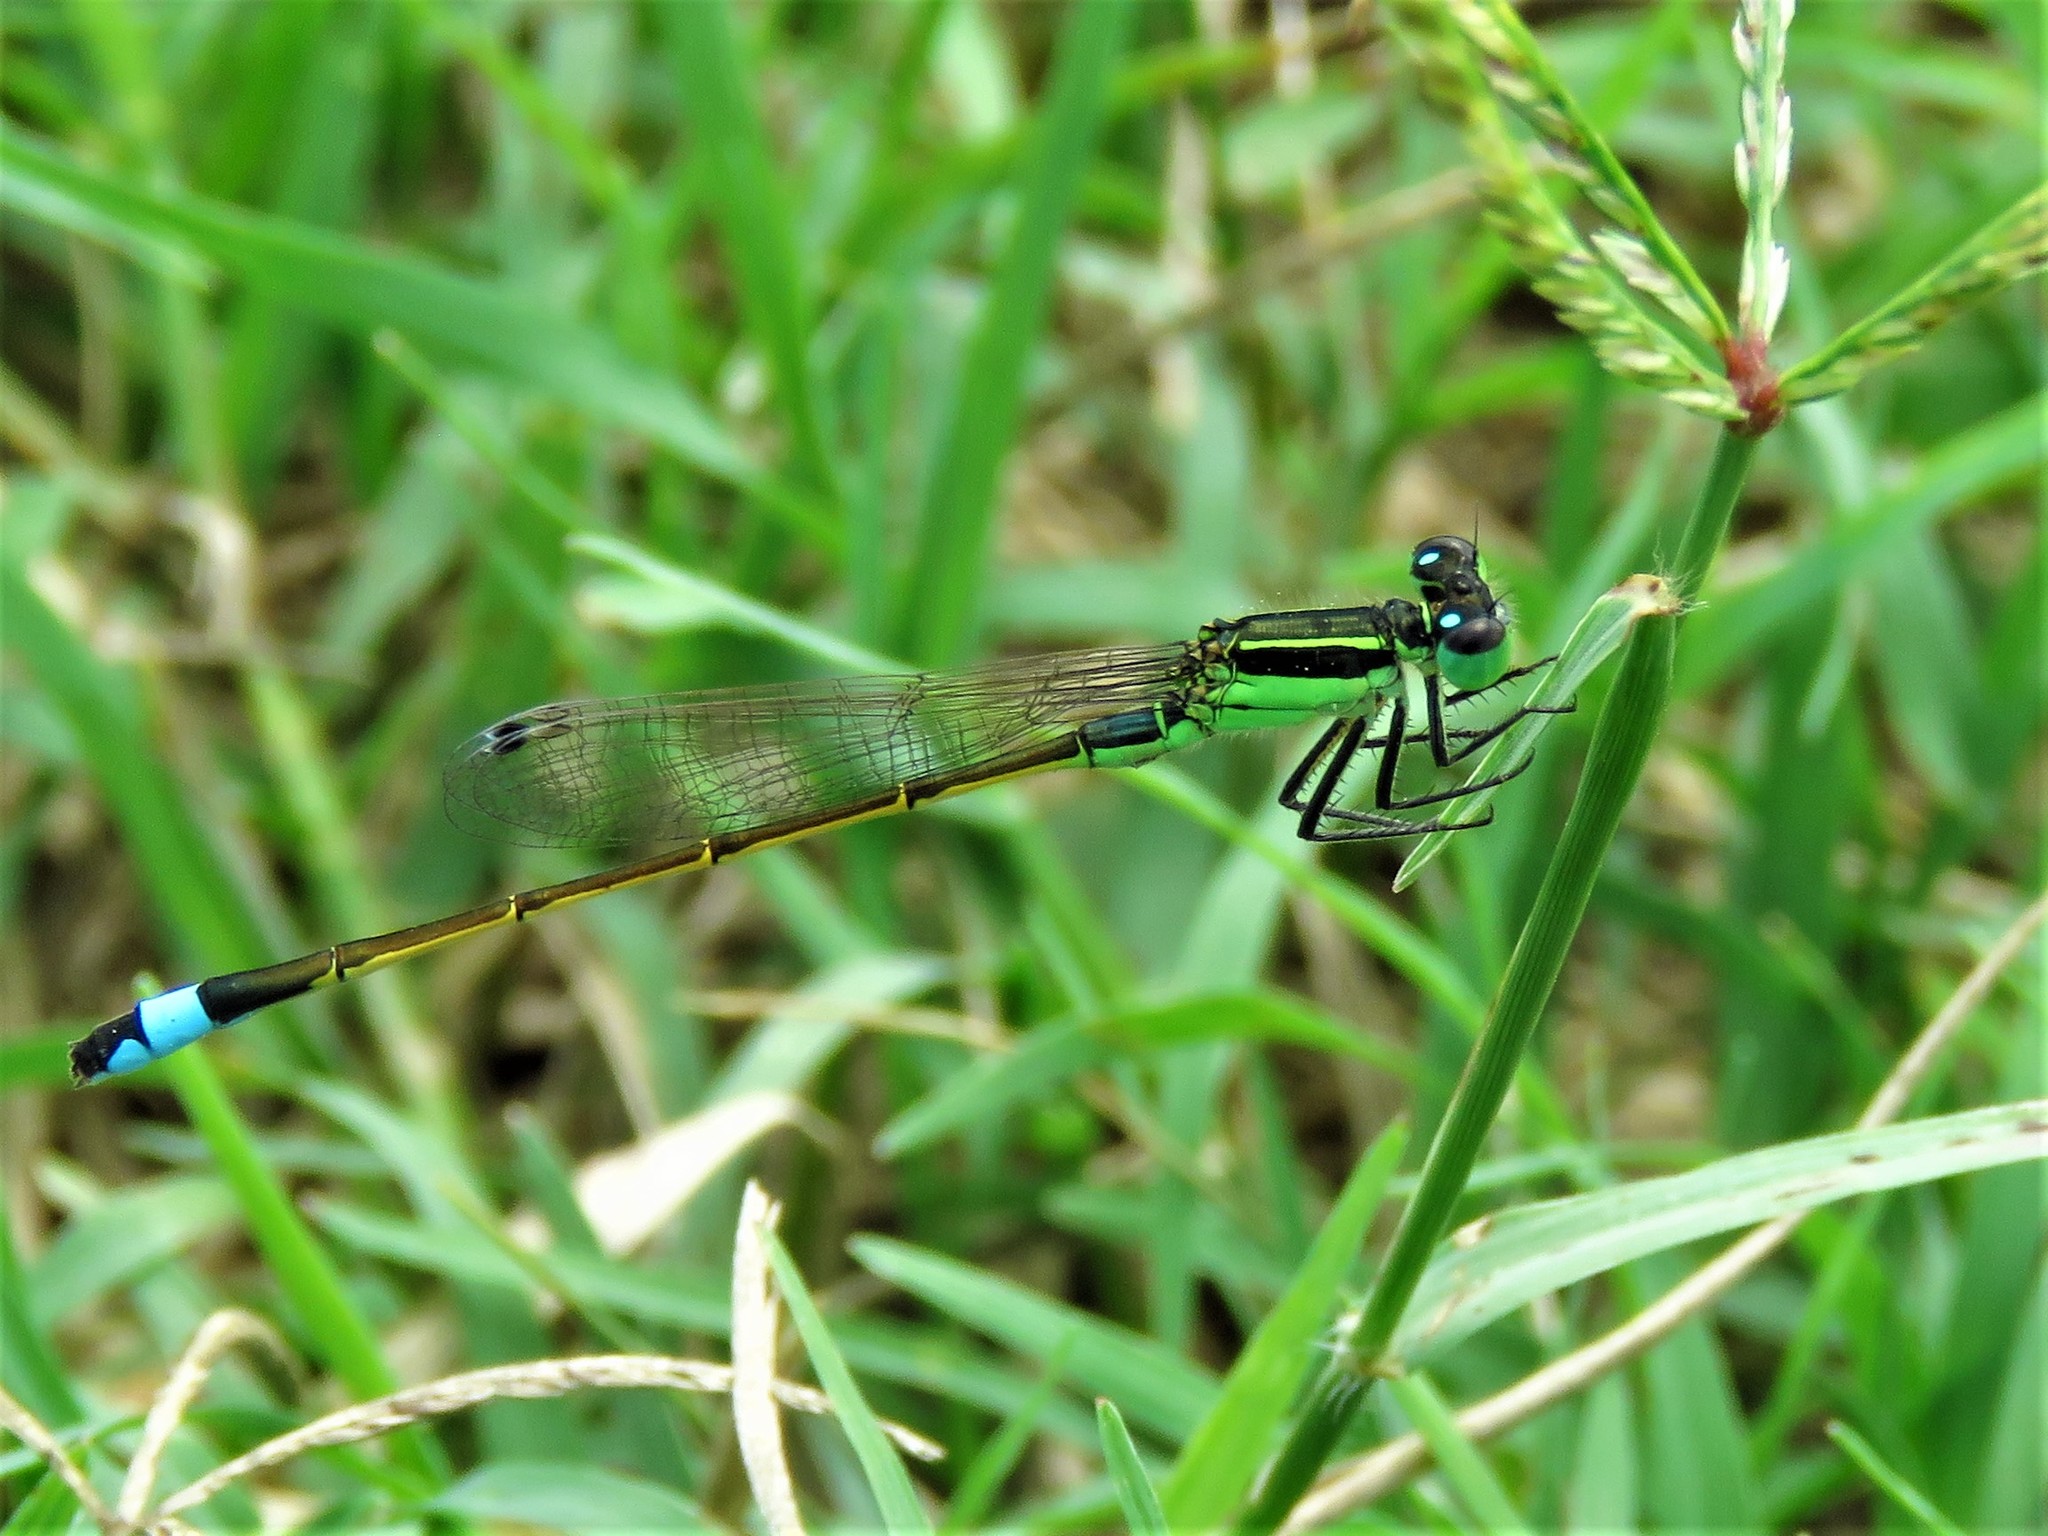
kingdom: Animalia
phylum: Arthropoda
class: Insecta
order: Odonata
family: Coenagrionidae
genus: Ischnura
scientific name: Ischnura ramburii
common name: Rambur's forktail
